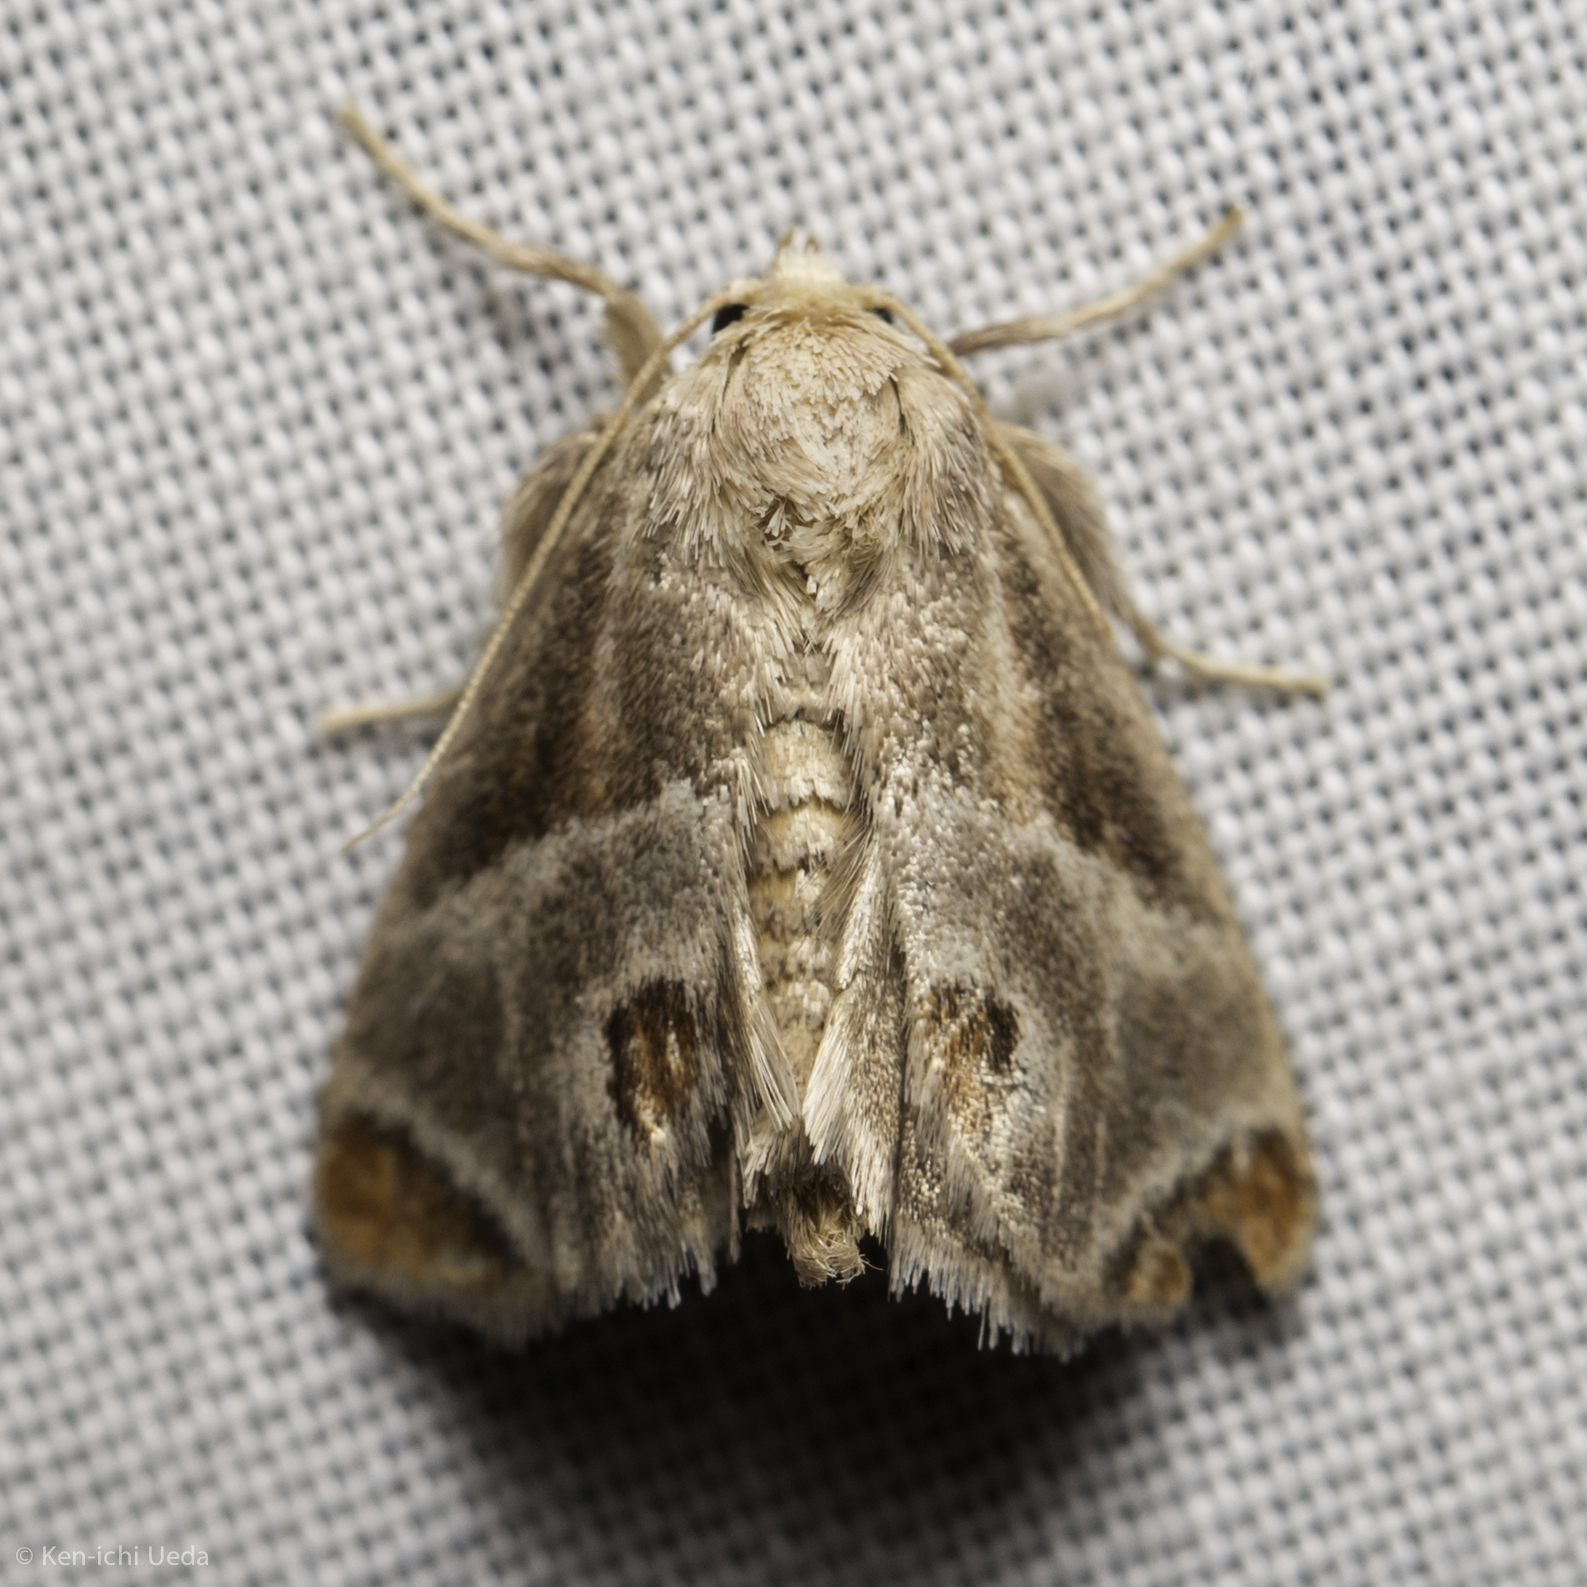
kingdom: Animalia
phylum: Arthropoda
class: Insecta
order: Lepidoptera
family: Limacodidae
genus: Apoda
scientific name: Apoda biguttata
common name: Shagreened slug moth
